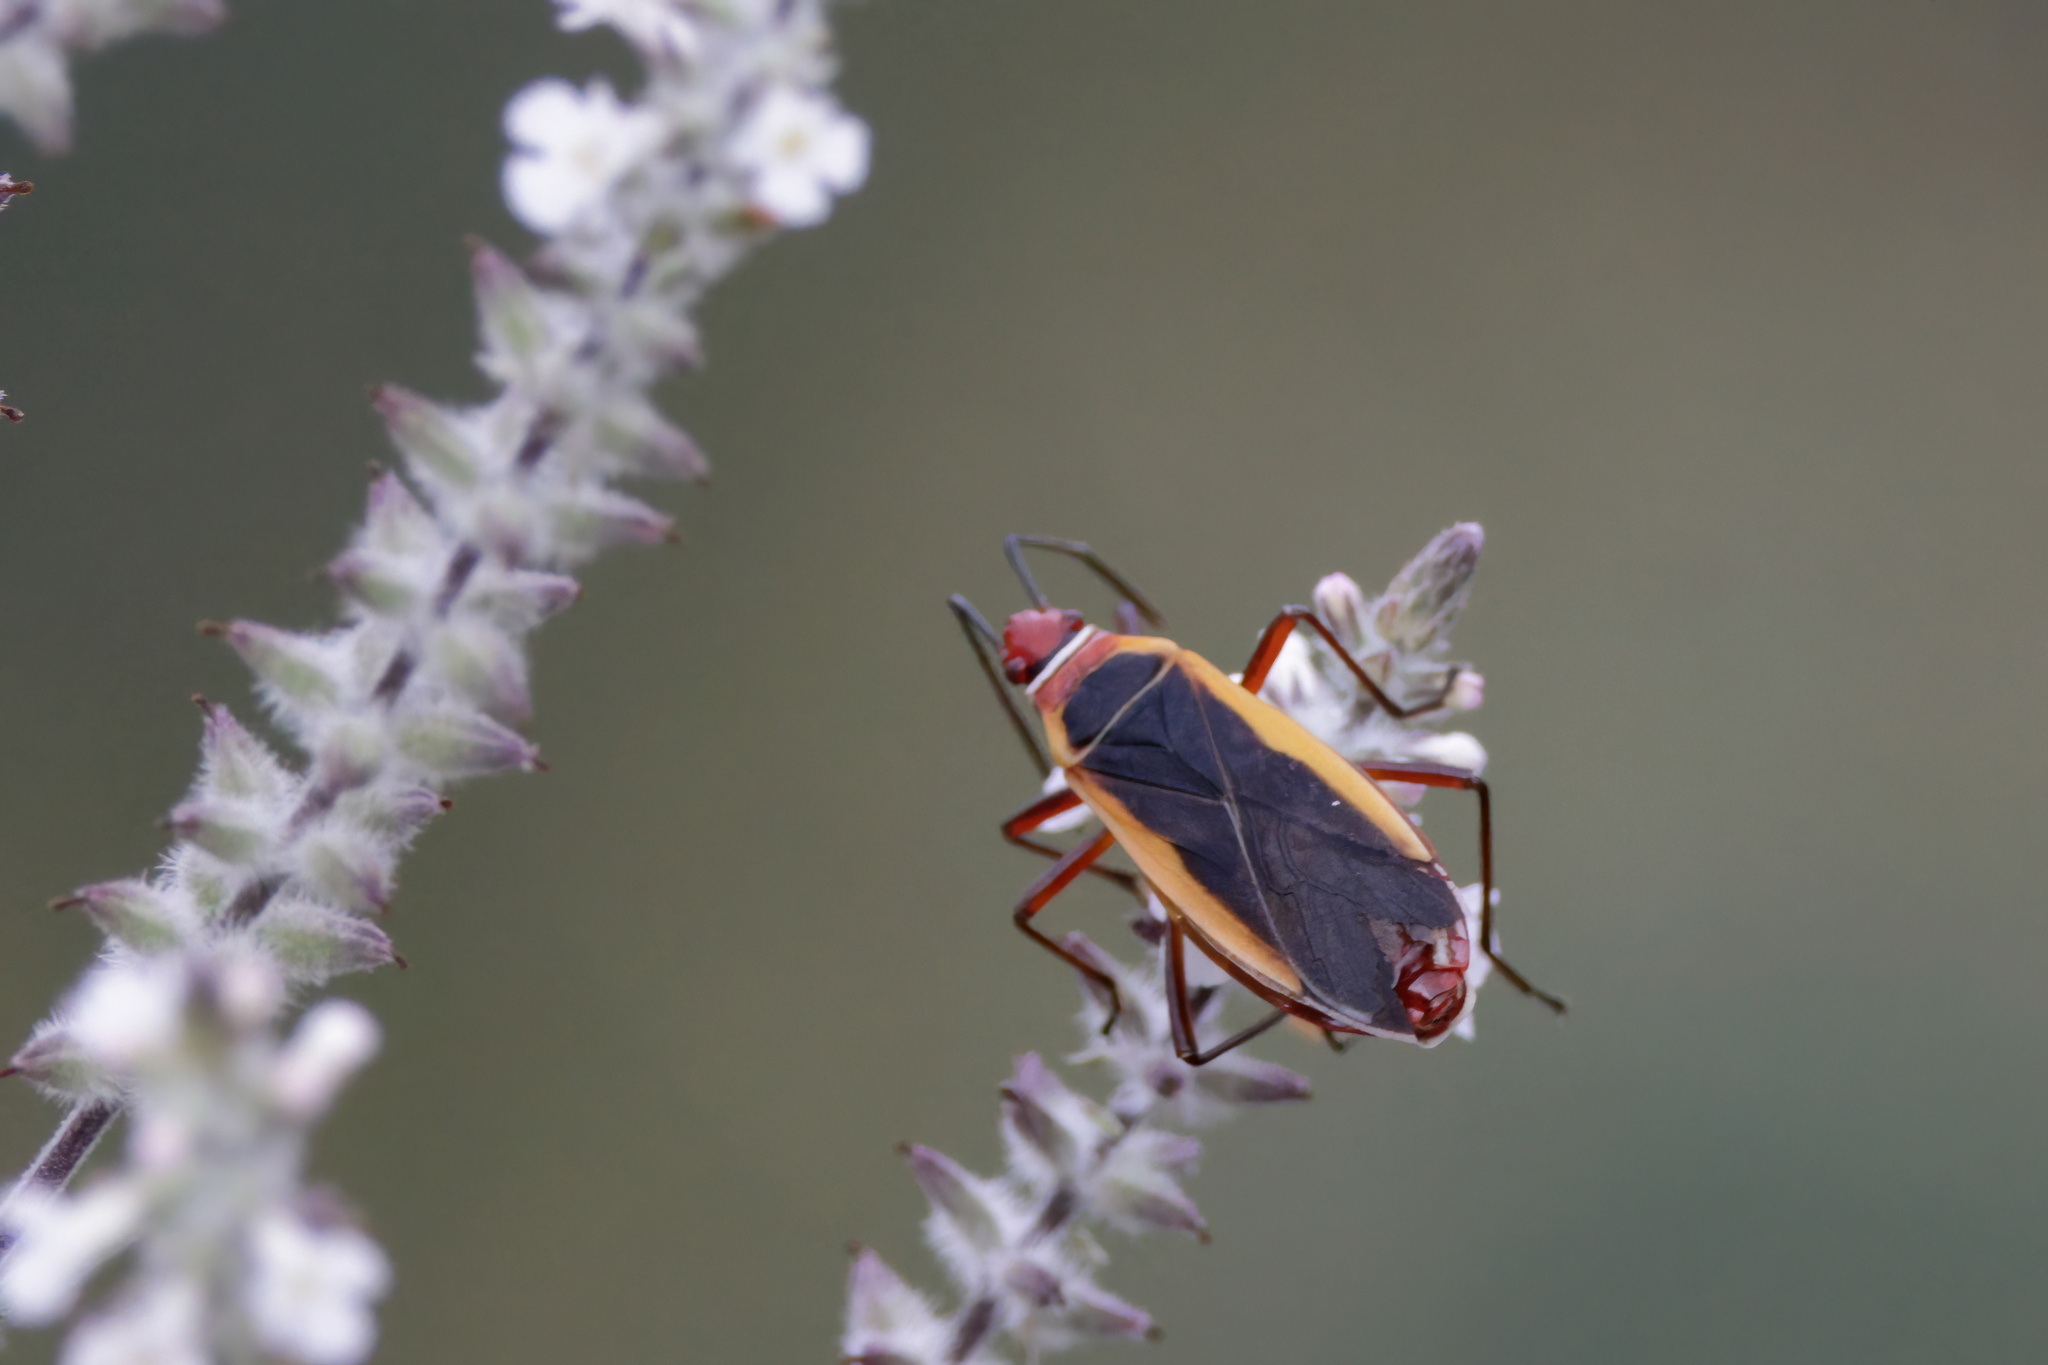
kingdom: Animalia
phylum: Arthropoda
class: Insecta
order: Hemiptera
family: Pyrrhocoridae
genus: Dysdercus
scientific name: Dysdercus mimulus
